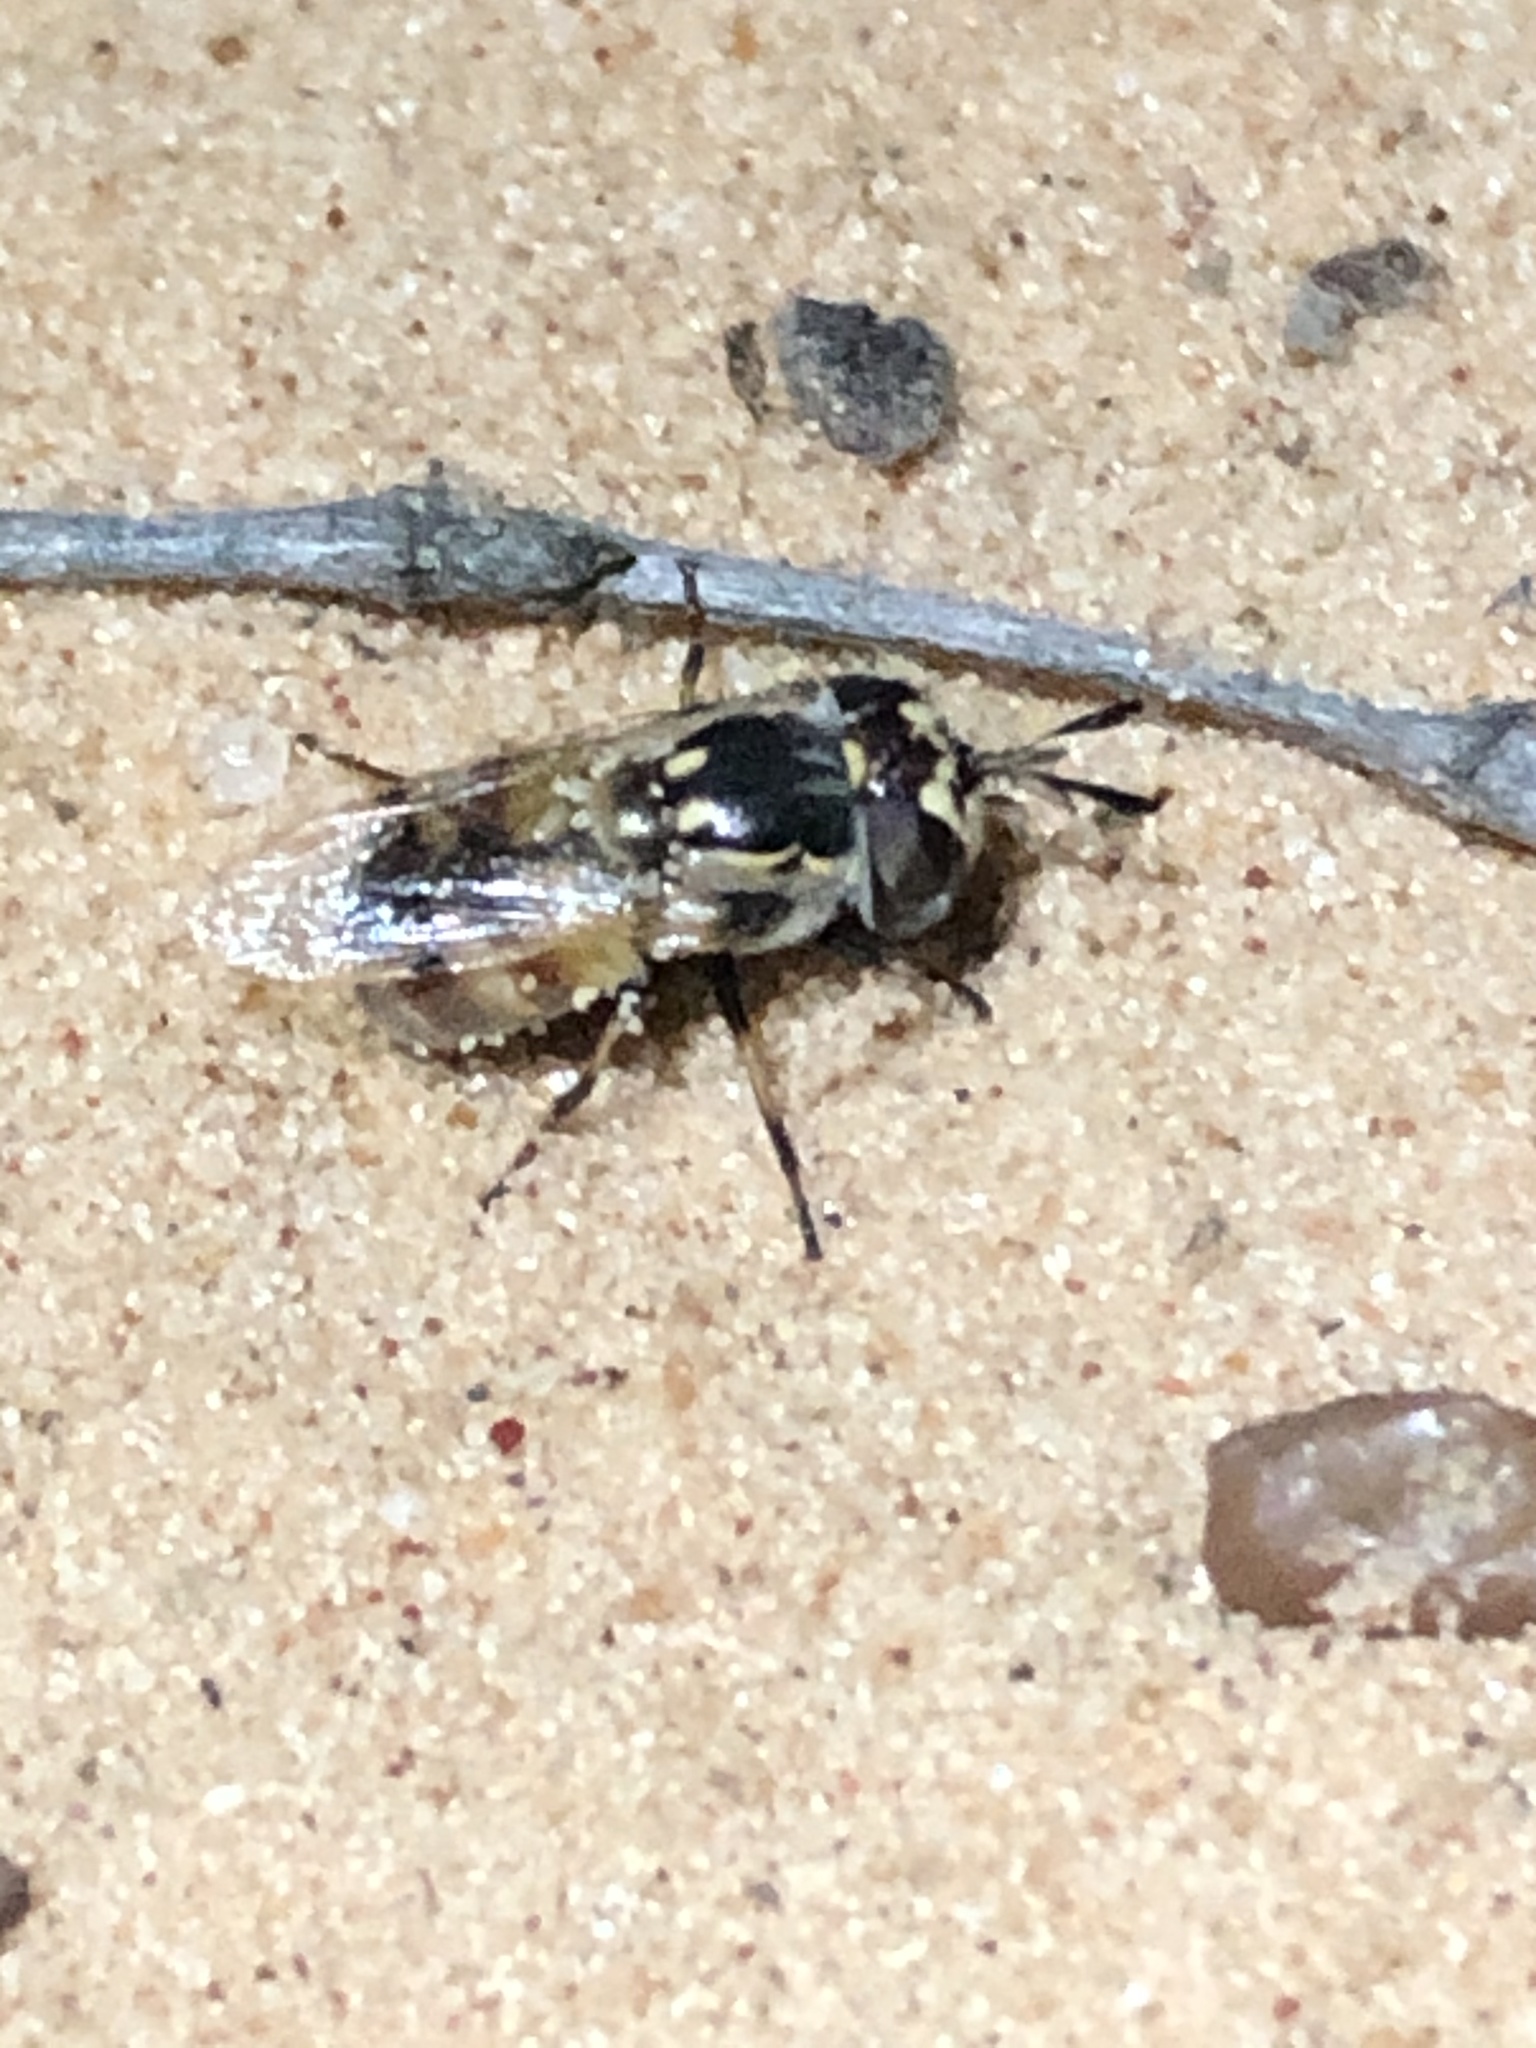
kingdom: Animalia
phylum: Arthropoda
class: Insecta
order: Diptera
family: Syrphidae
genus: Copestylum
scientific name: Copestylum caudatum
